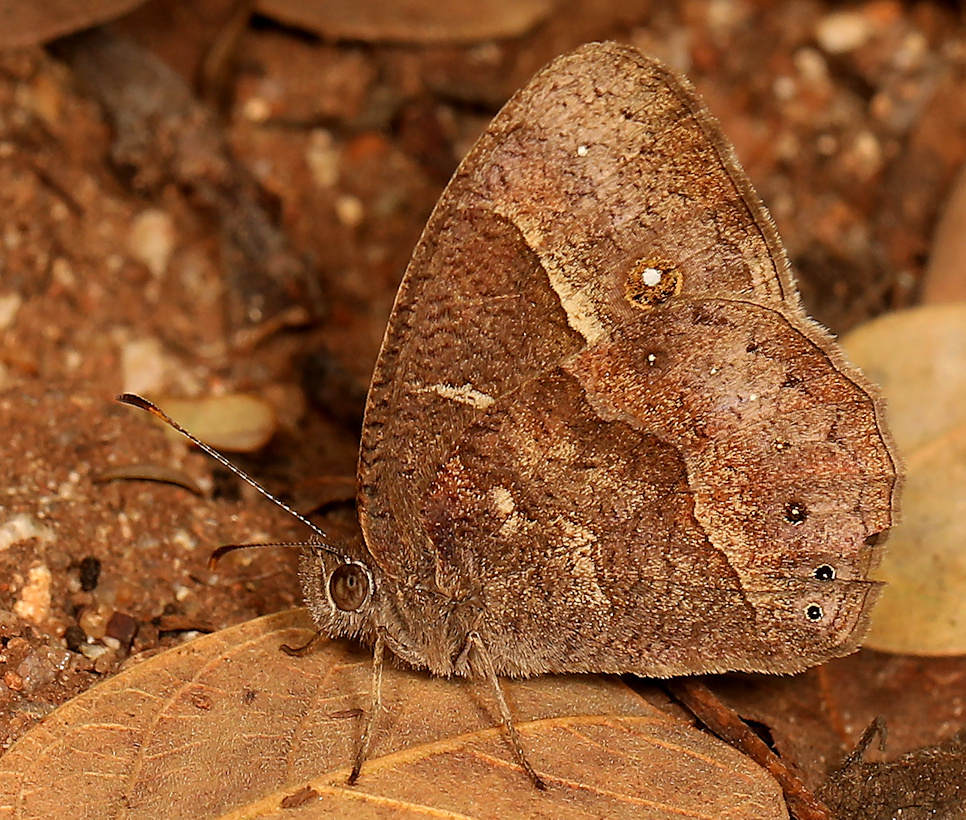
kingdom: Animalia
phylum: Arthropoda
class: Insecta
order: Lepidoptera
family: Nymphalidae
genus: Mycalesis
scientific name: Mycalesis anynana
